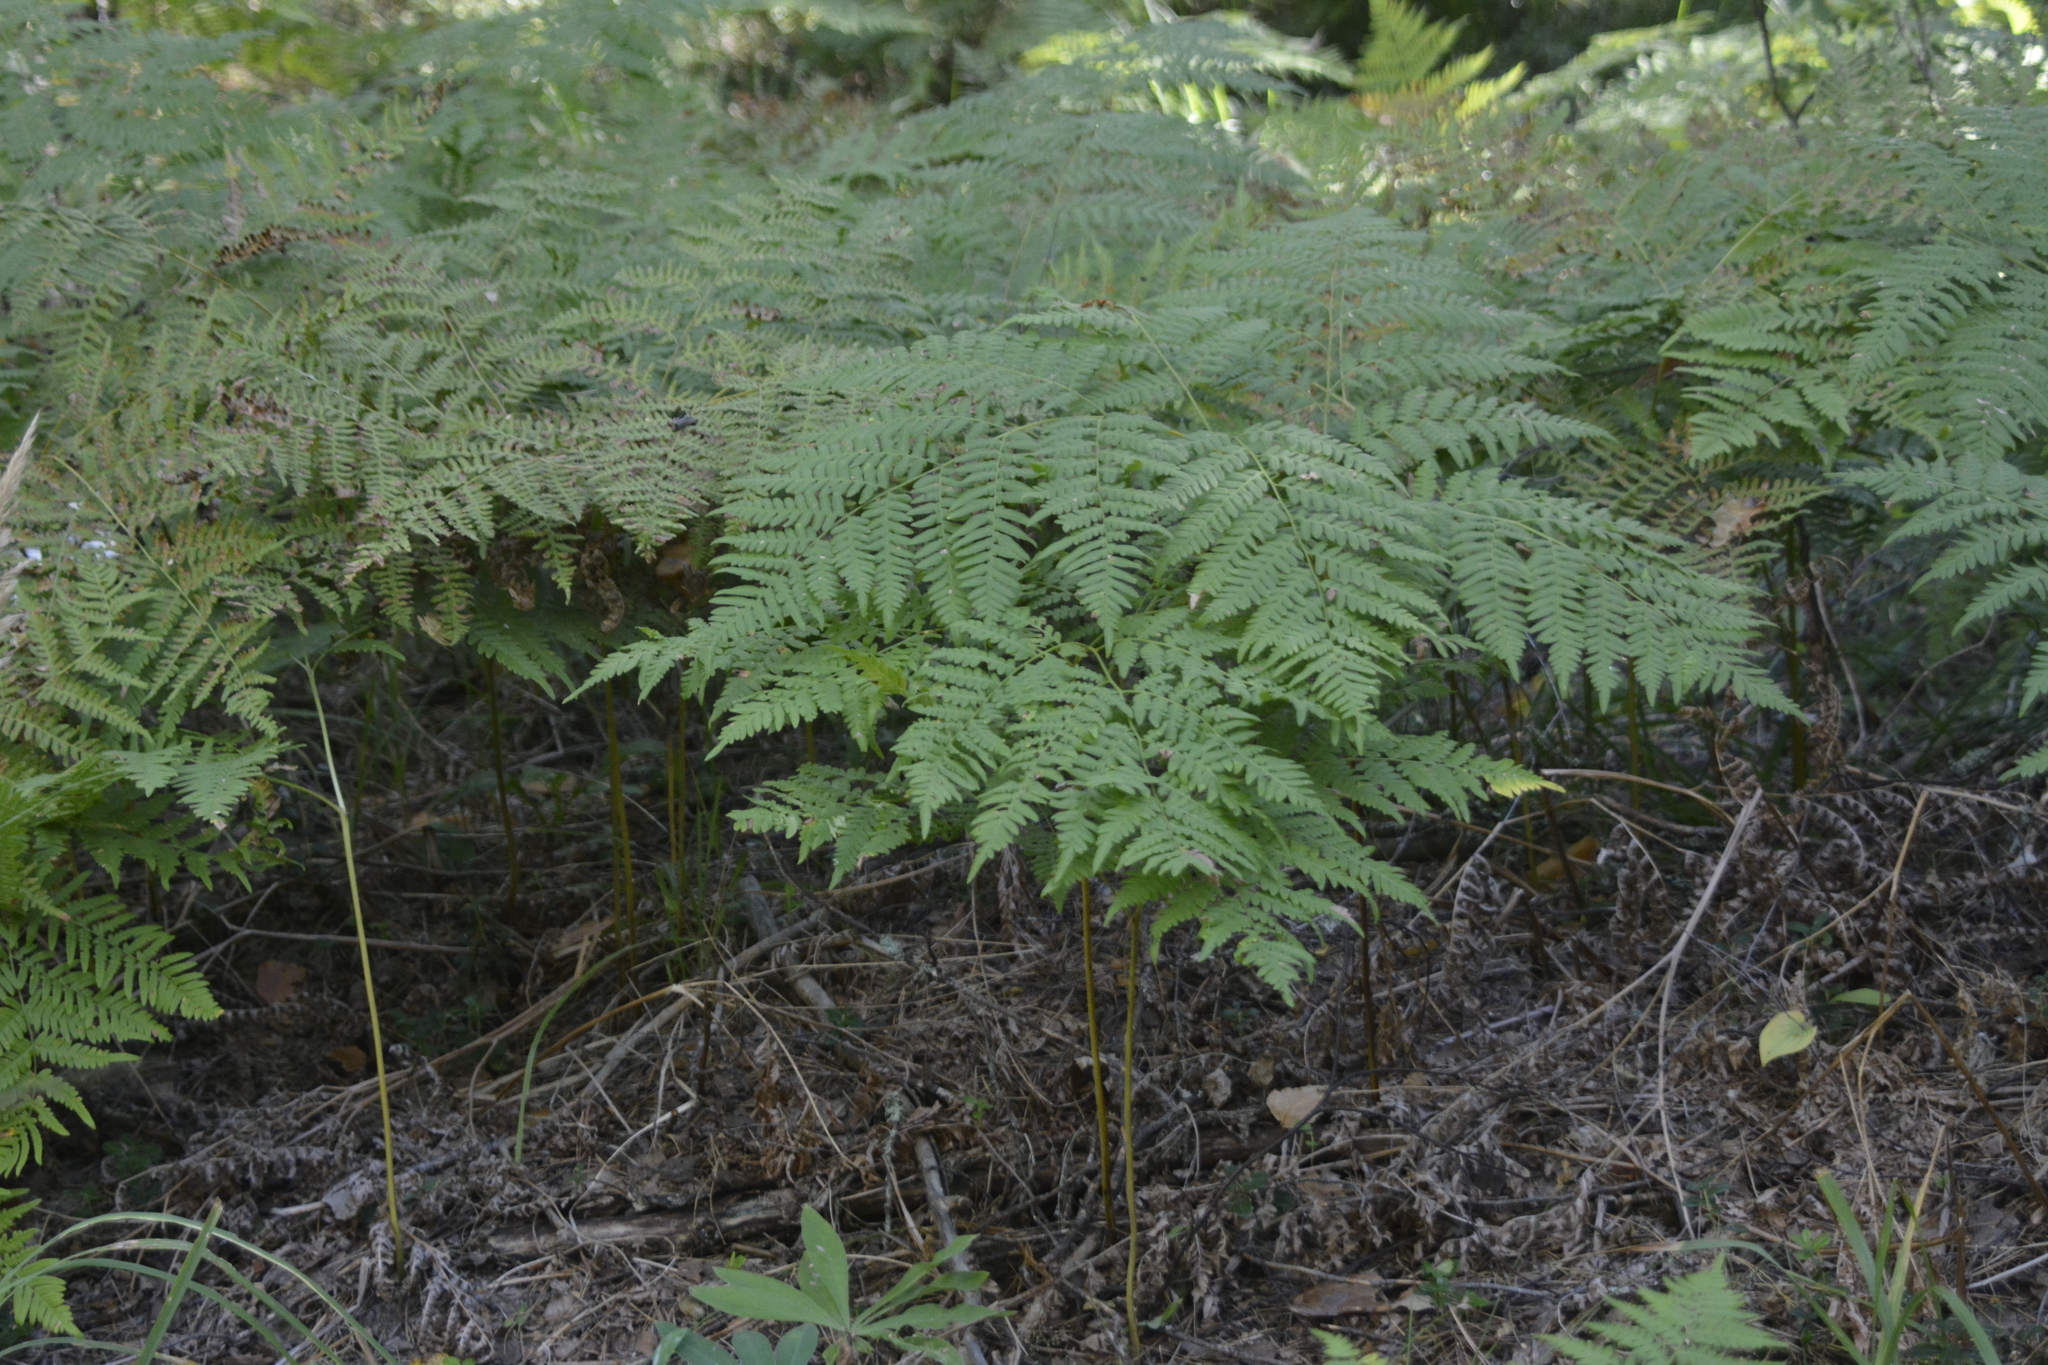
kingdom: Plantae
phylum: Tracheophyta
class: Polypodiopsida
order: Polypodiales
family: Dennstaedtiaceae
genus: Pteridium
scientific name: Pteridium aquilinum
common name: Bracken
